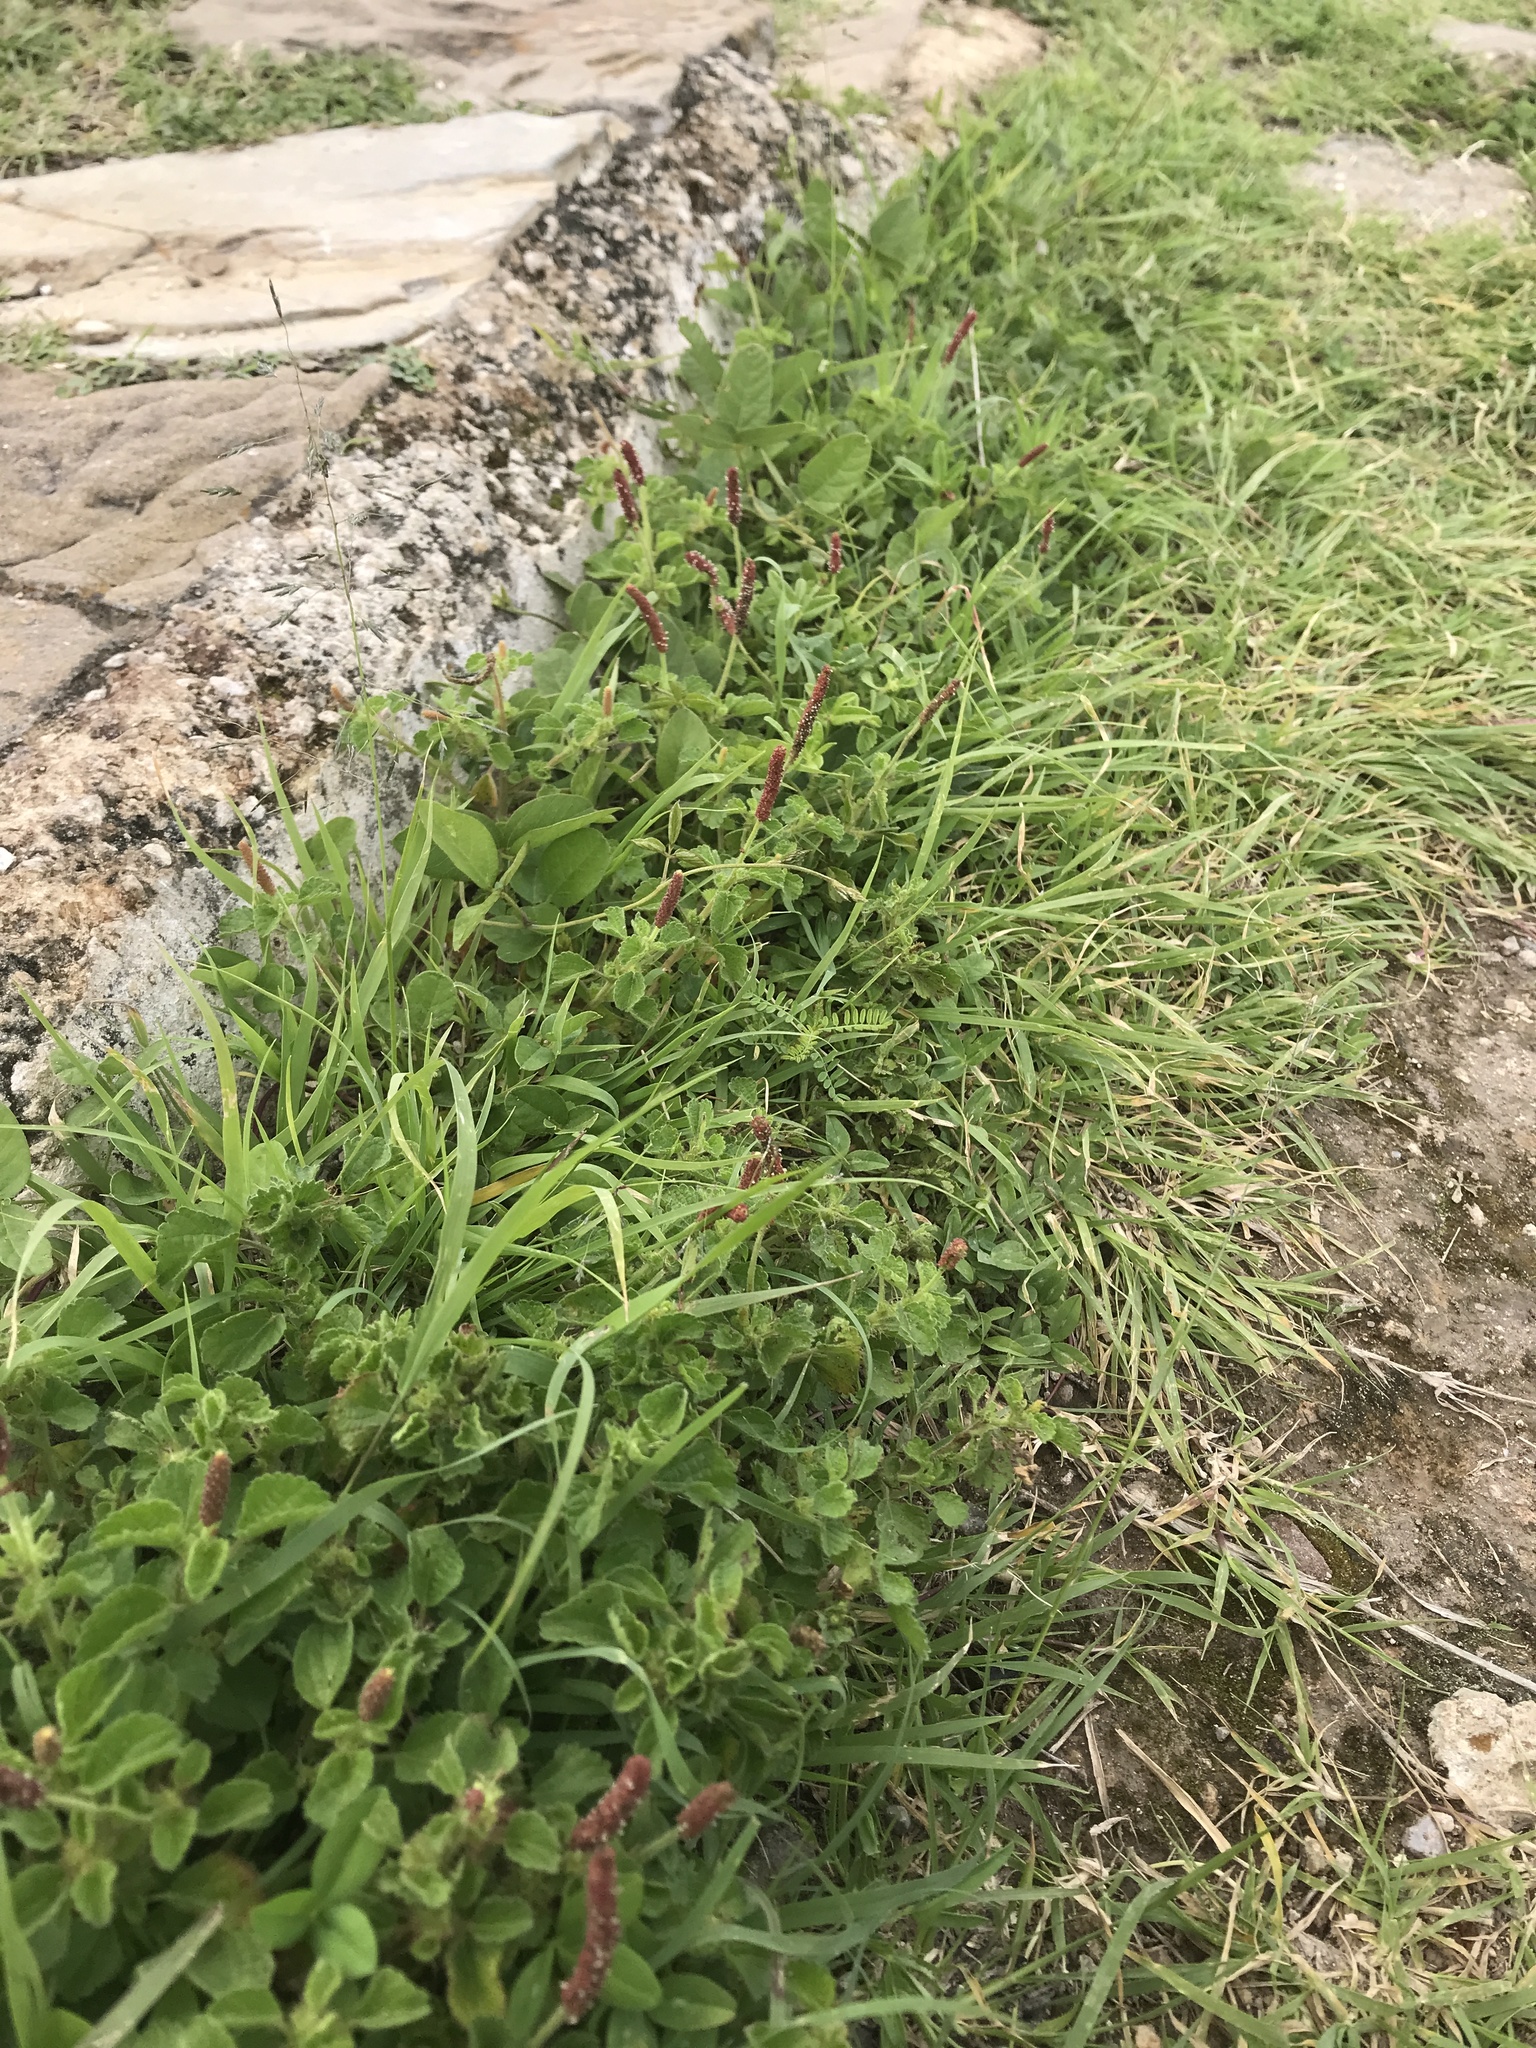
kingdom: Plantae
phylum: Tracheophyta
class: Magnoliopsida
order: Malpighiales
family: Euphorbiaceae
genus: Acalypha
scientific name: Acalypha monostachya
